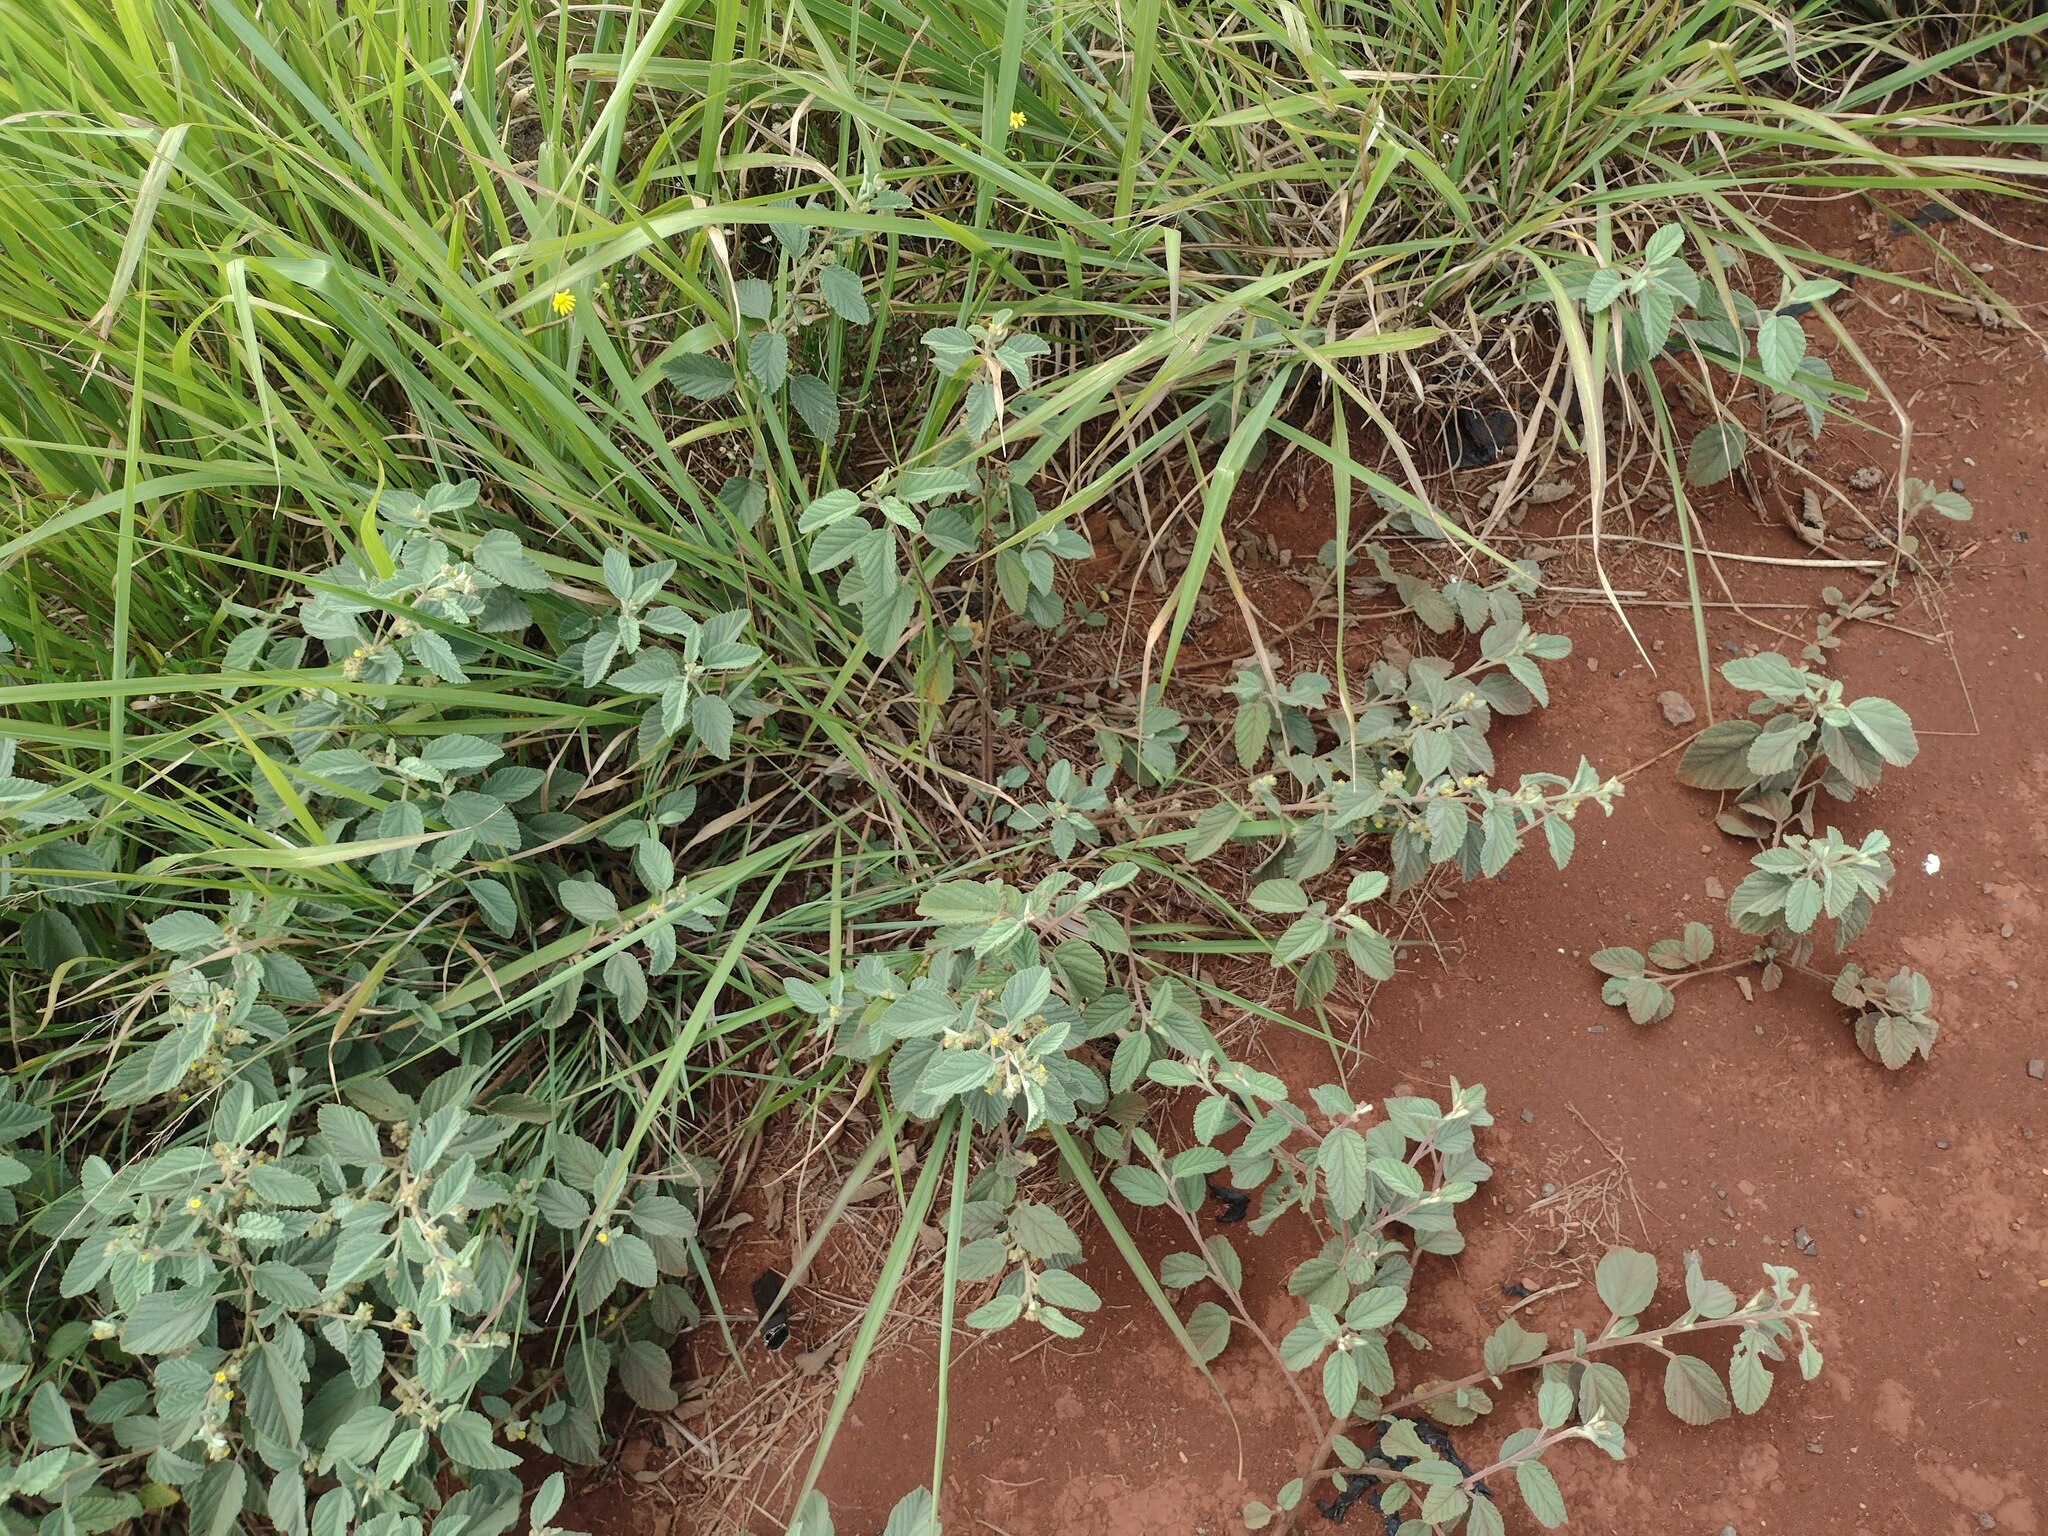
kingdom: Plantae
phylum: Tracheophyta
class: Magnoliopsida
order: Malvales
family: Malvaceae
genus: Waltheria
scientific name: Waltheria indica
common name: Leather-coat
